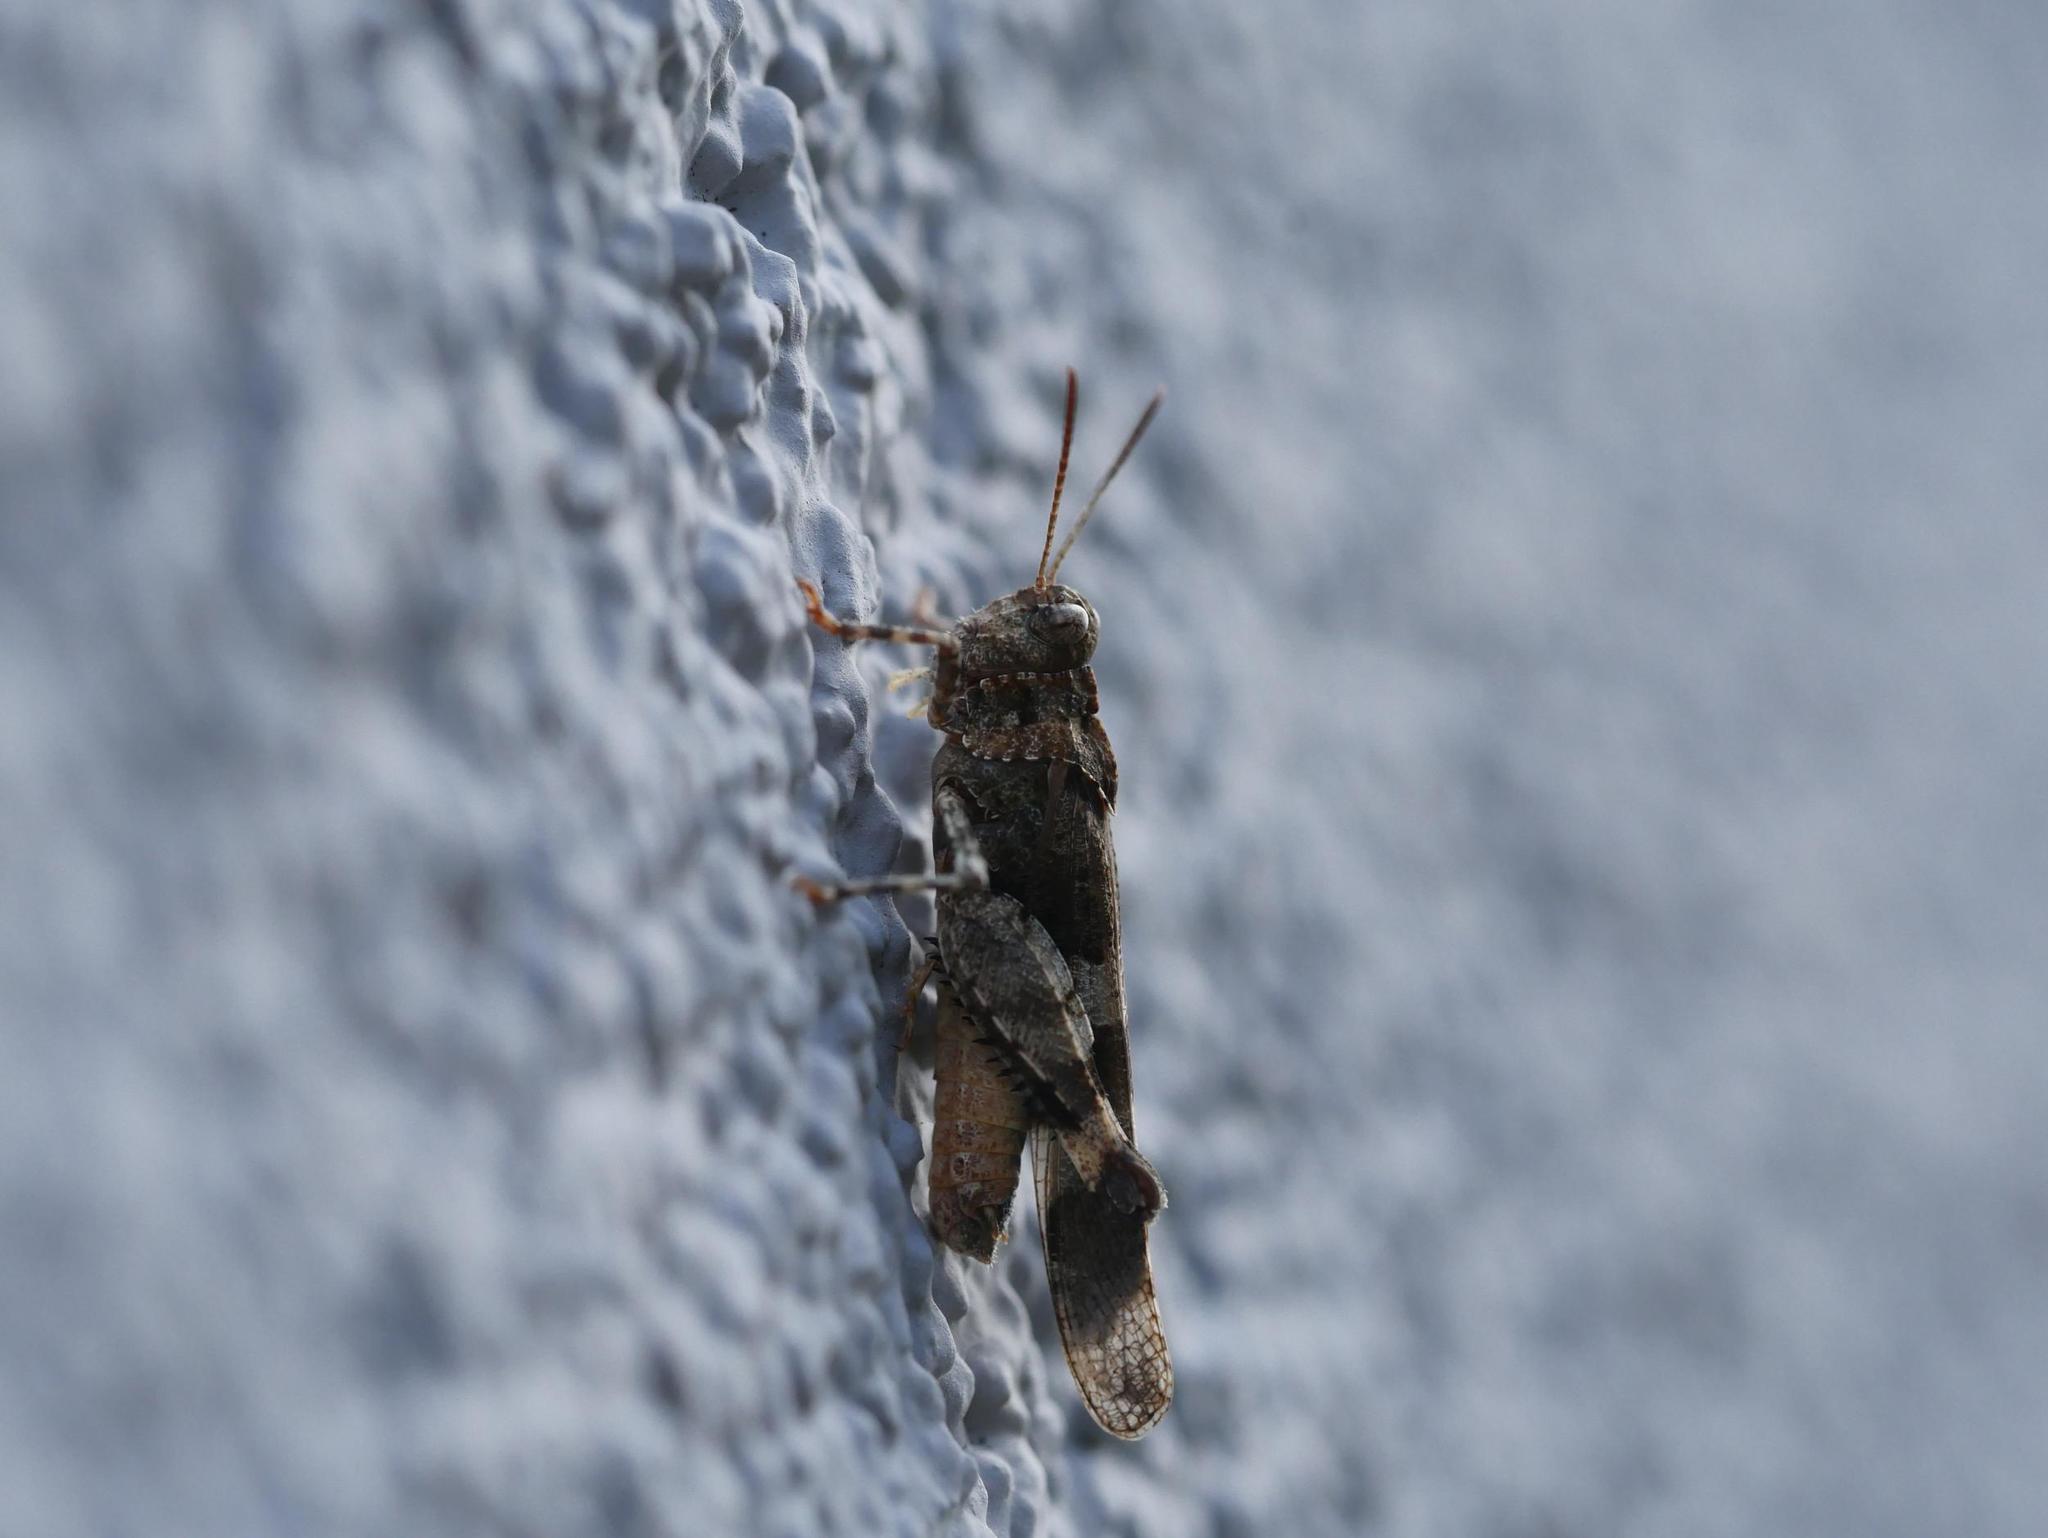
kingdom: Animalia
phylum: Arthropoda
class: Insecta
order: Orthoptera
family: Acrididae
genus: Oedipoda
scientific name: Oedipoda caerulescens
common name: Blue-winged grasshopper
